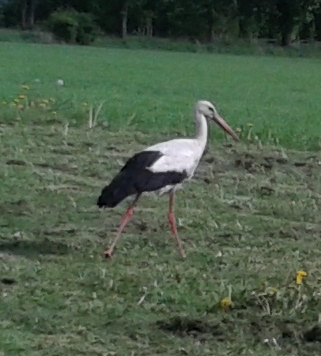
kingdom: Animalia
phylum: Chordata
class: Aves
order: Ciconiiformes
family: Ciconiidae
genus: Ciconia
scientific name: Ciconia ciconia
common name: White stork
